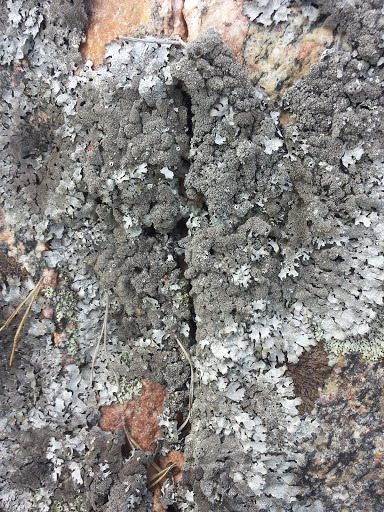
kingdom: Fungi
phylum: Ascomycota
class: Lecanoromycetes
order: Lecanorales
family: Parmeliaceae
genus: Parmelia
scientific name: Parmelia saxatilis
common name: Salted shield lichen
